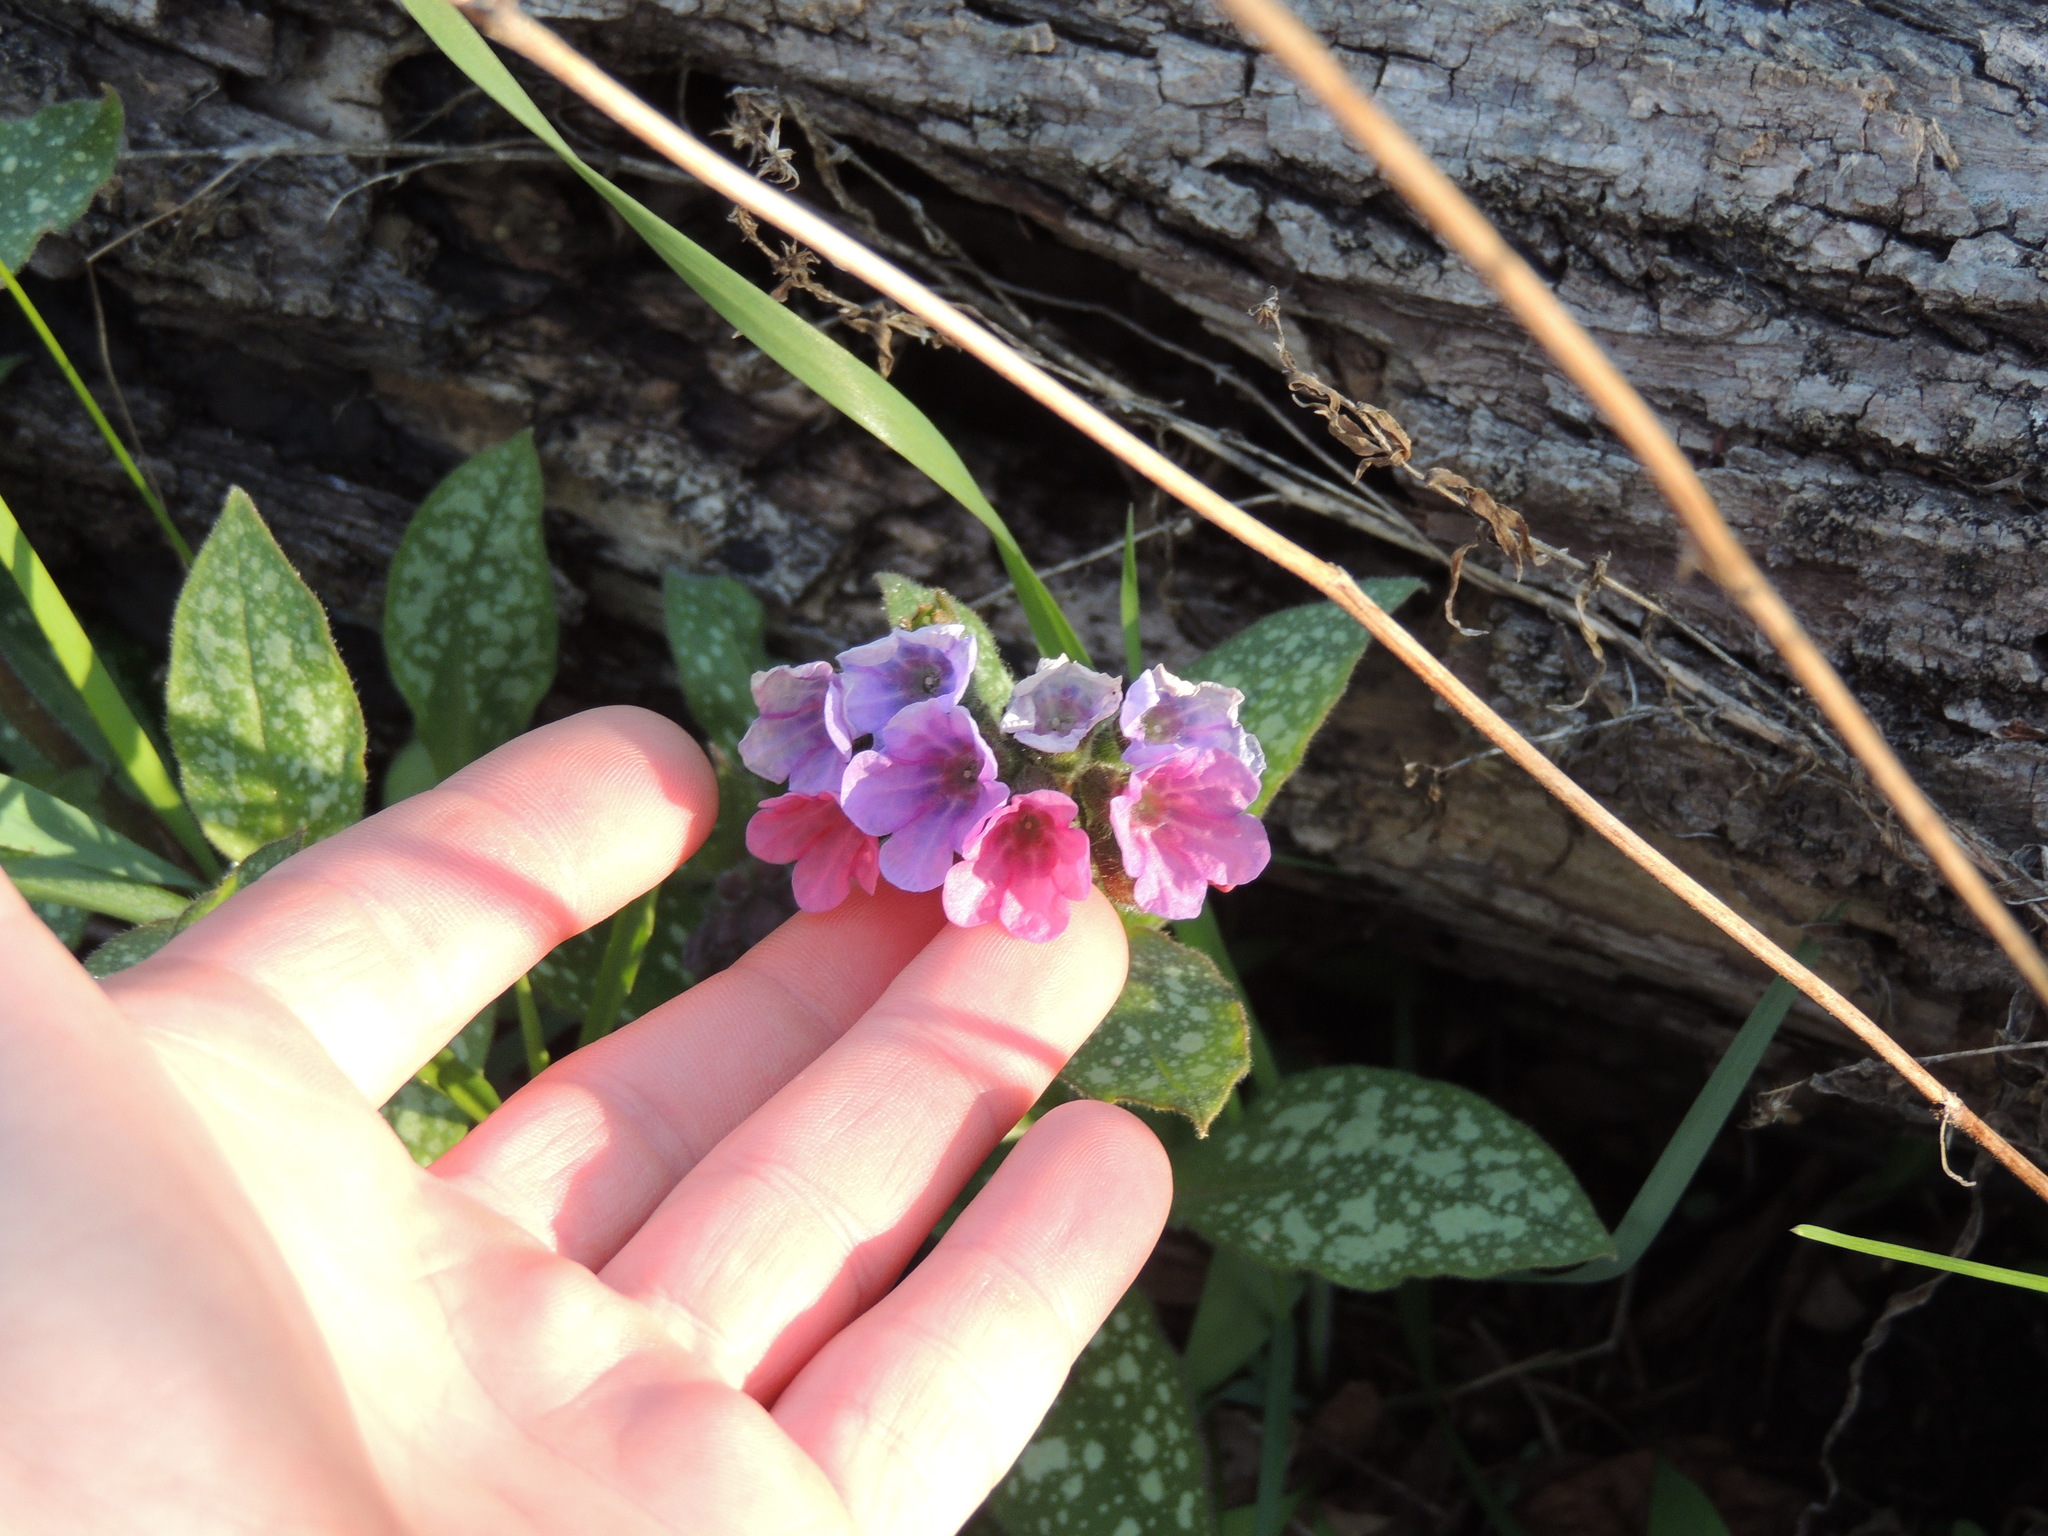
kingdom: Plantae
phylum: Tracheophyta
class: Magnoliopsida
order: Boraginales
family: Boraginaceae
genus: Pulmonaria
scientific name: Pulmonaria officinalis
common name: Lungwort
